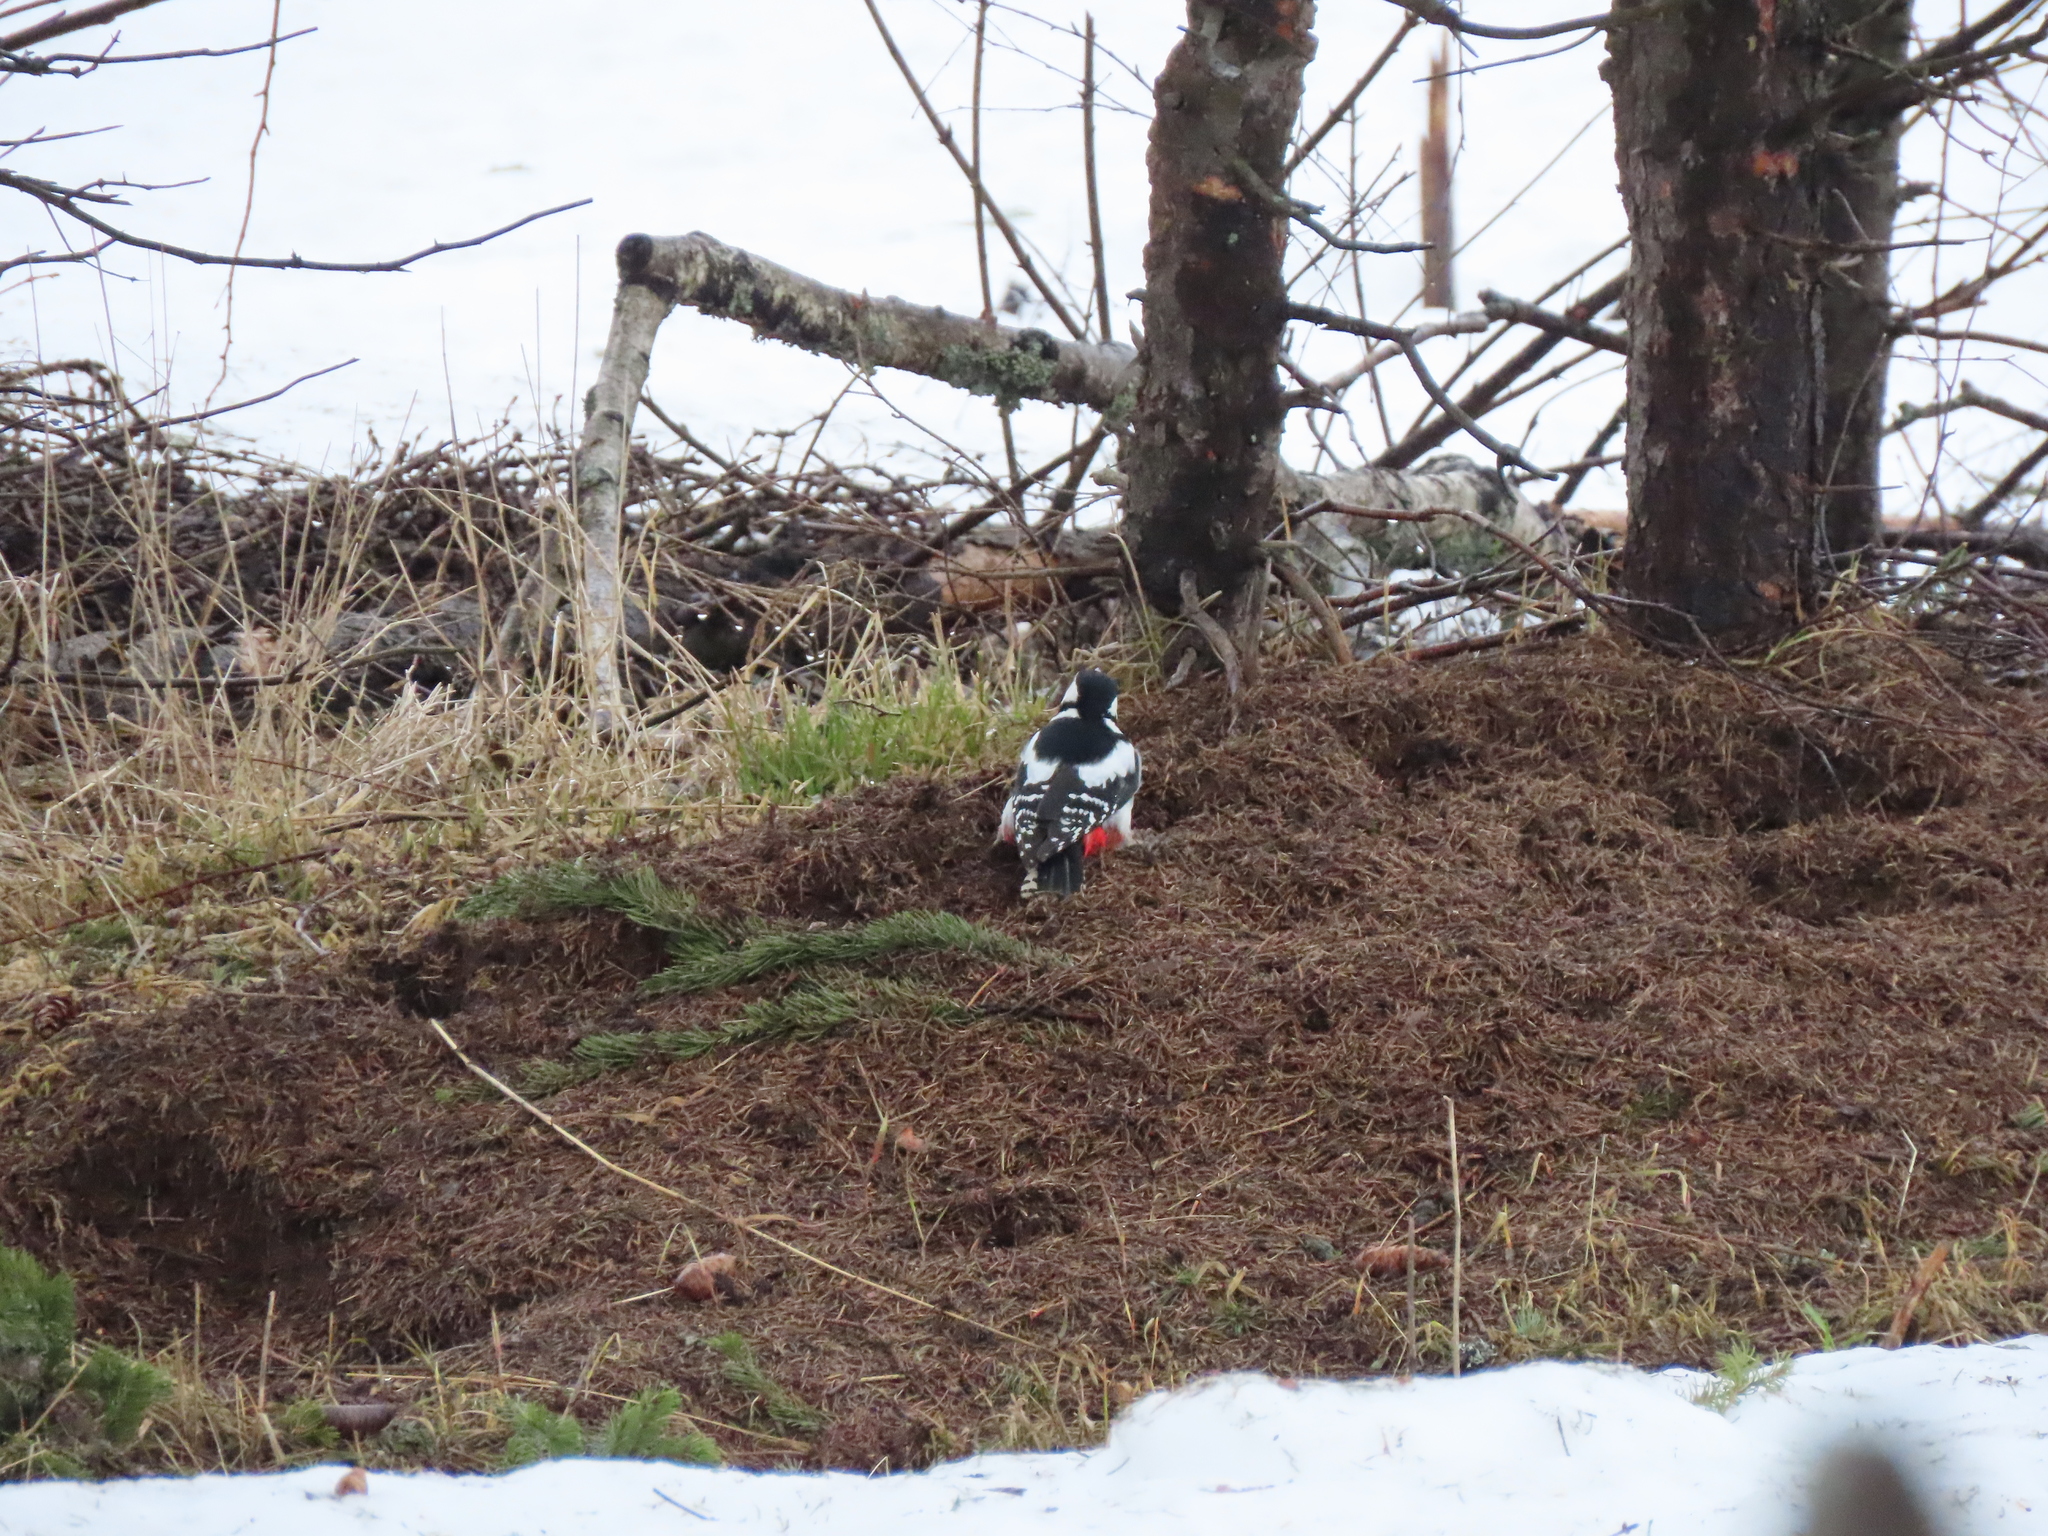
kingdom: Animalia
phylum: Chordata
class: Aves
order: Piciformes
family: Picidae
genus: Dendrocopos
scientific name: Dendrocopos major
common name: Great spotted woodpecker
